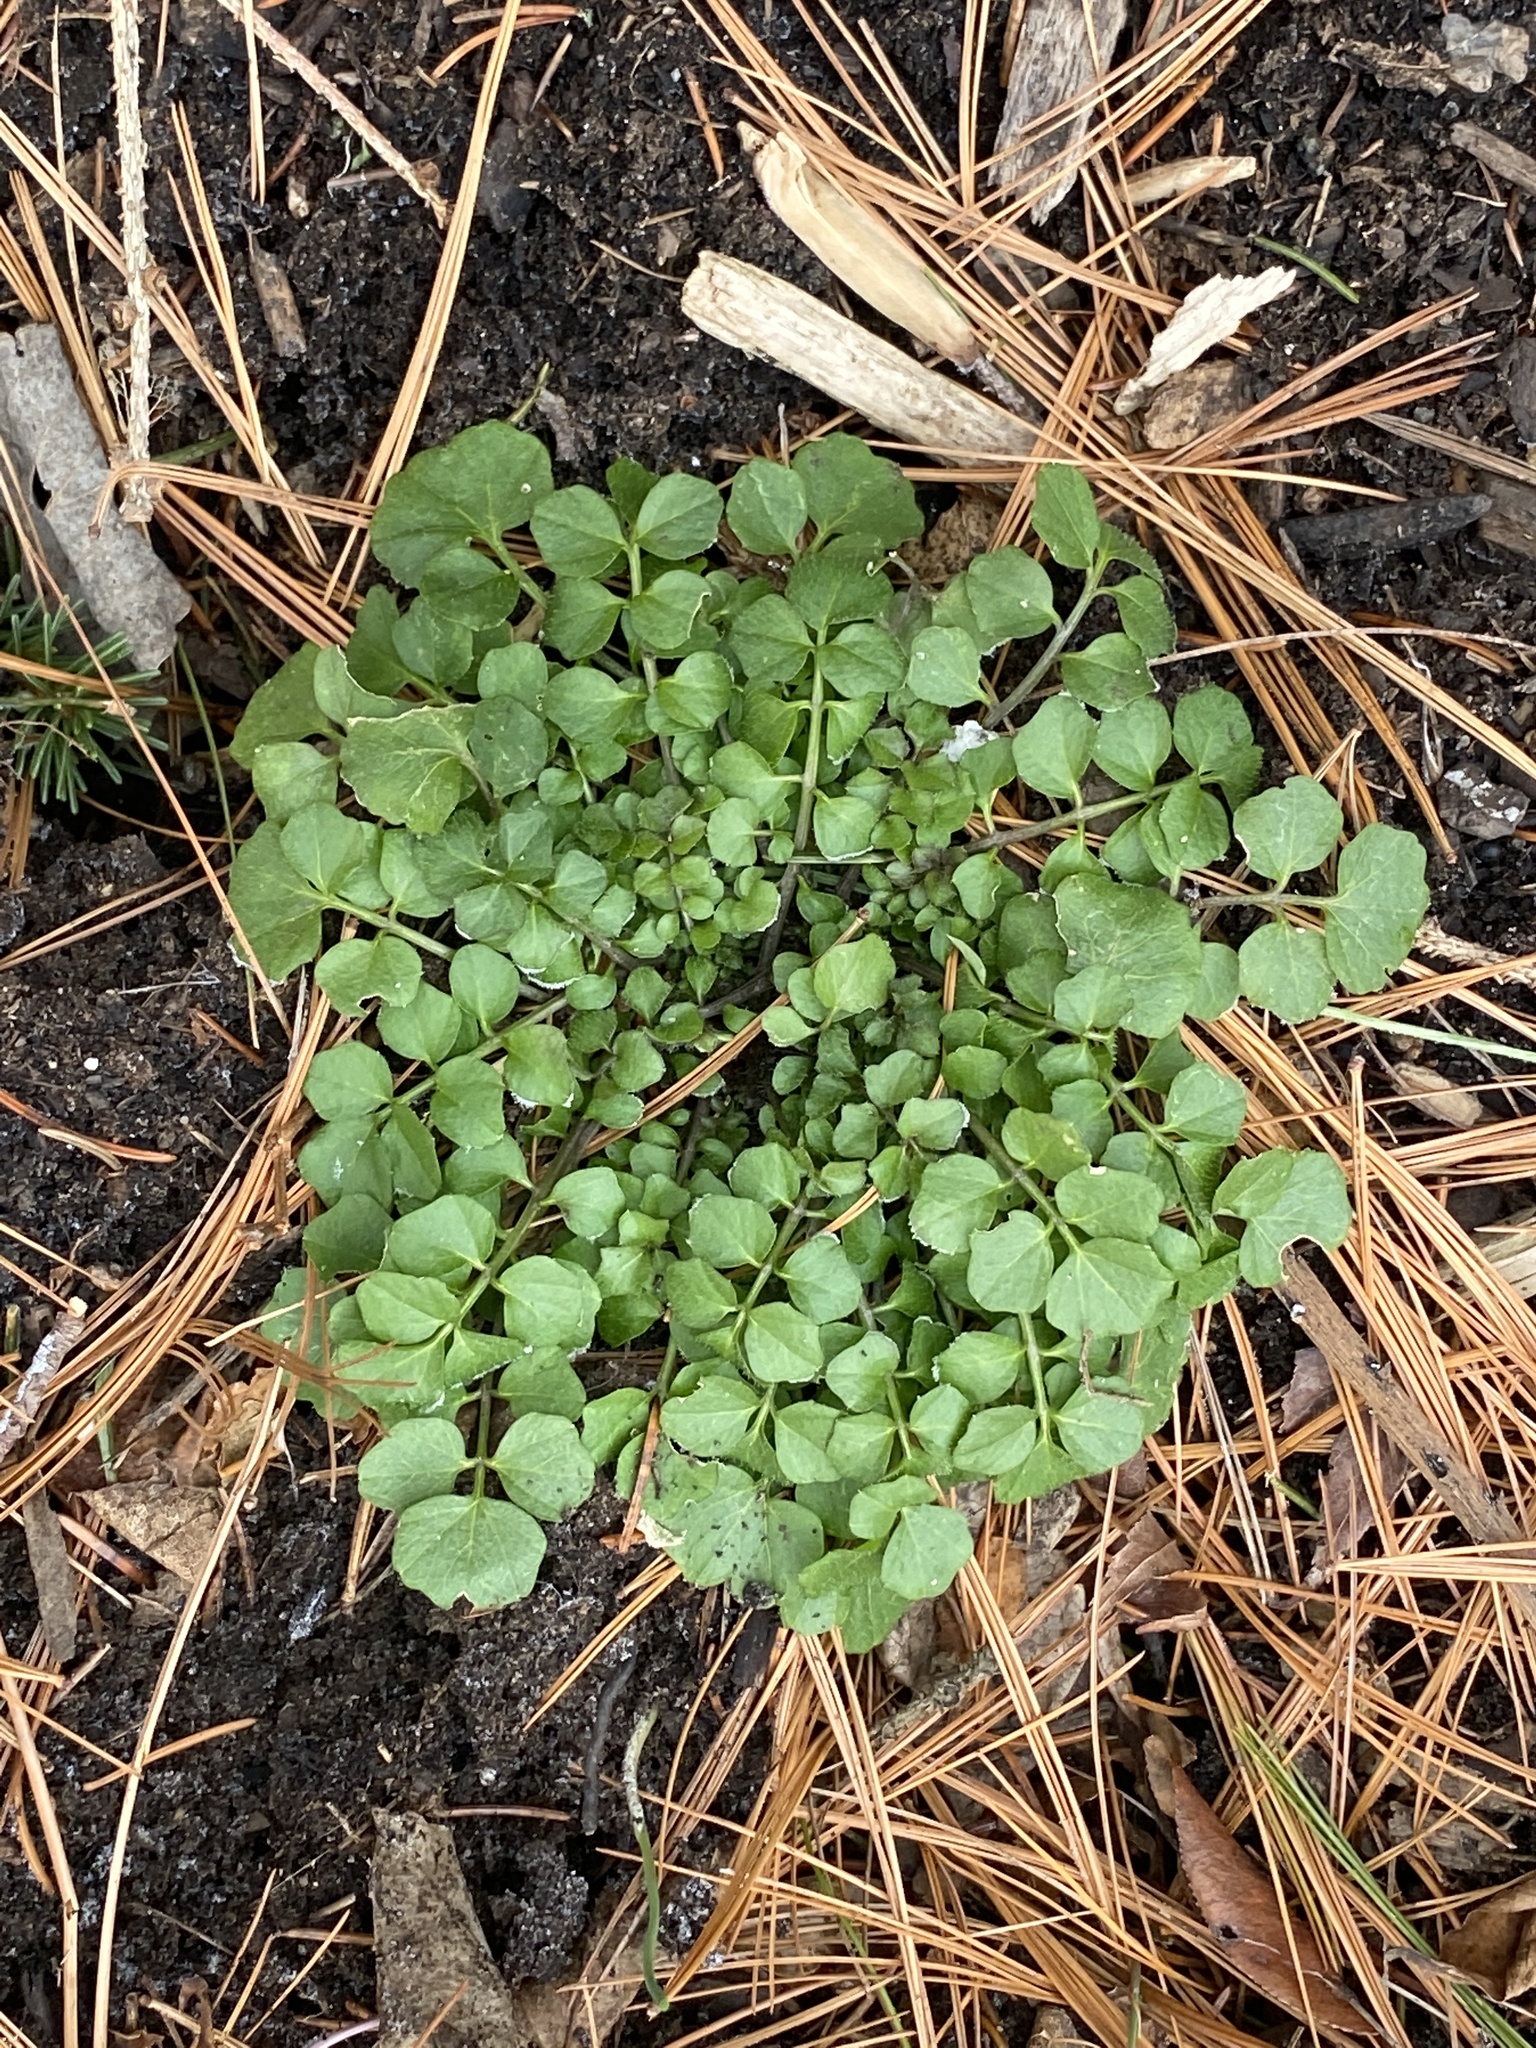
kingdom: Plantae
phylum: Tracheophyta
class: Magnoliopsida
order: Brassicales
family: Brassicaceae
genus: Cardamine
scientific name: Cardamine hirsuta
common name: Hairy bittercress
